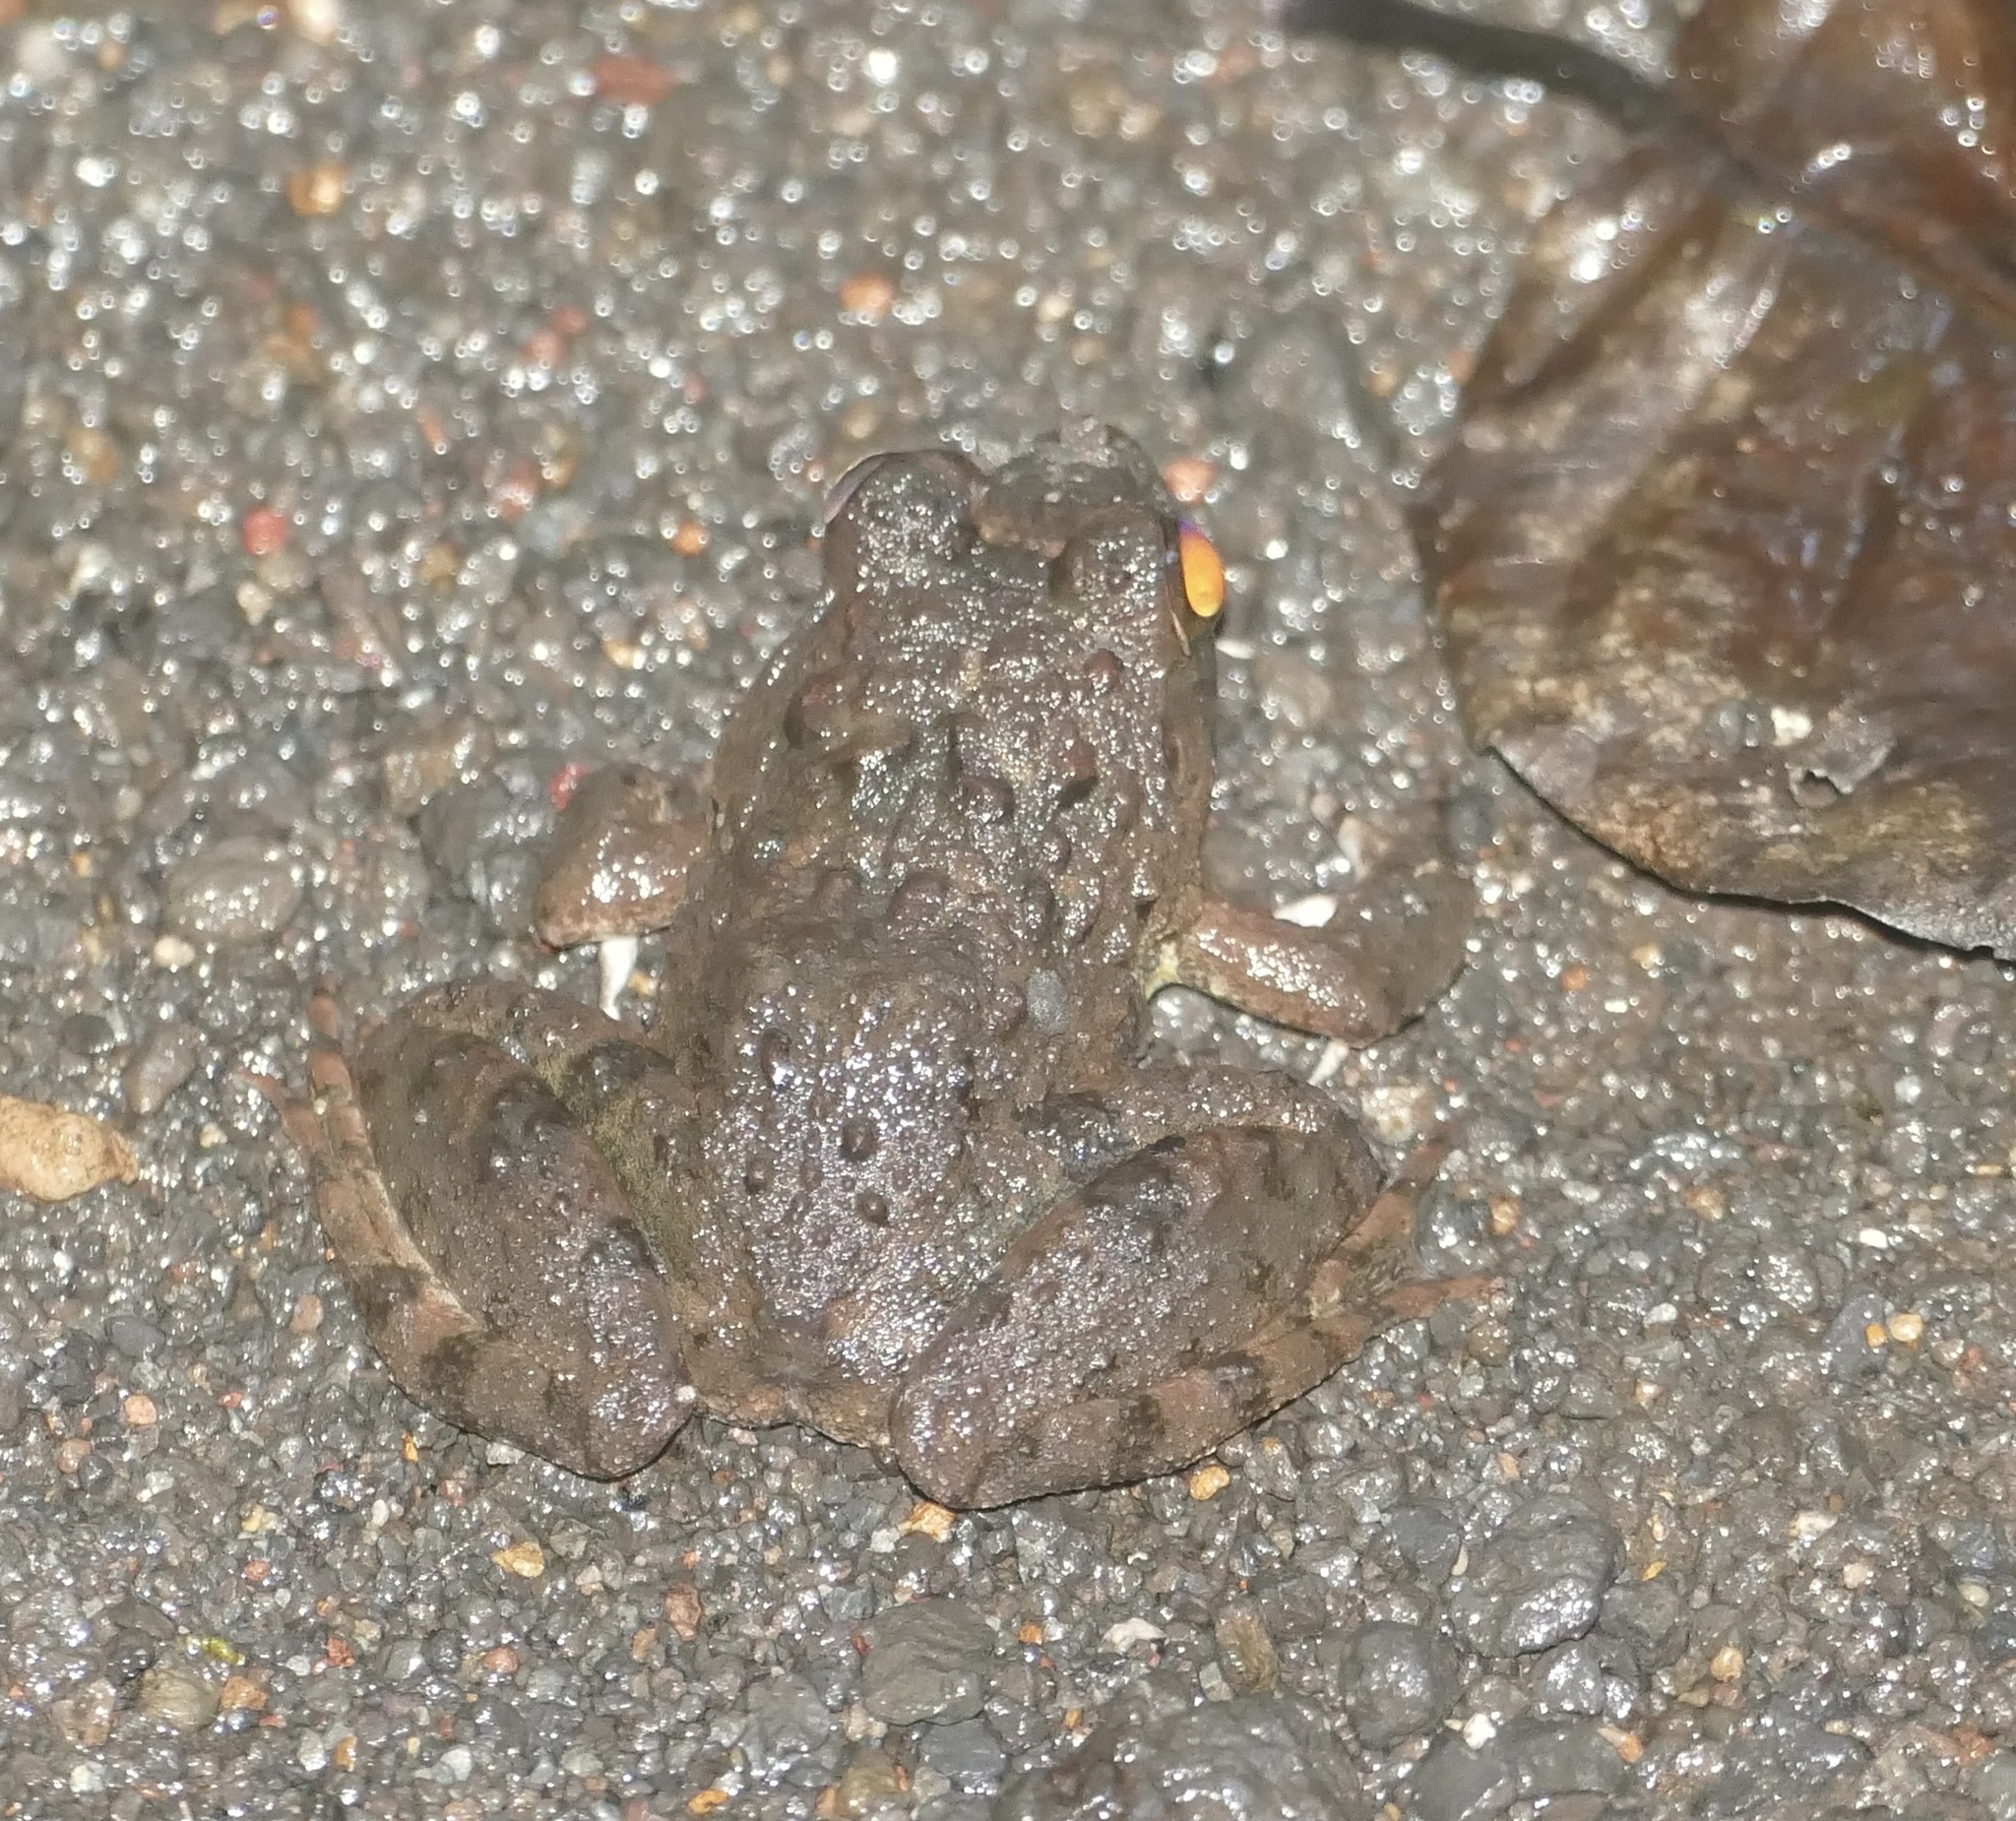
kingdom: Animalia
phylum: Chordata
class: Amphibia
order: Anura
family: Dicroglossidae
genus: Fejervarya
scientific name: Fejervarya cancrivora
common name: Crab-eating frog/mangrove frog/rice field frog/asian brackish frog
